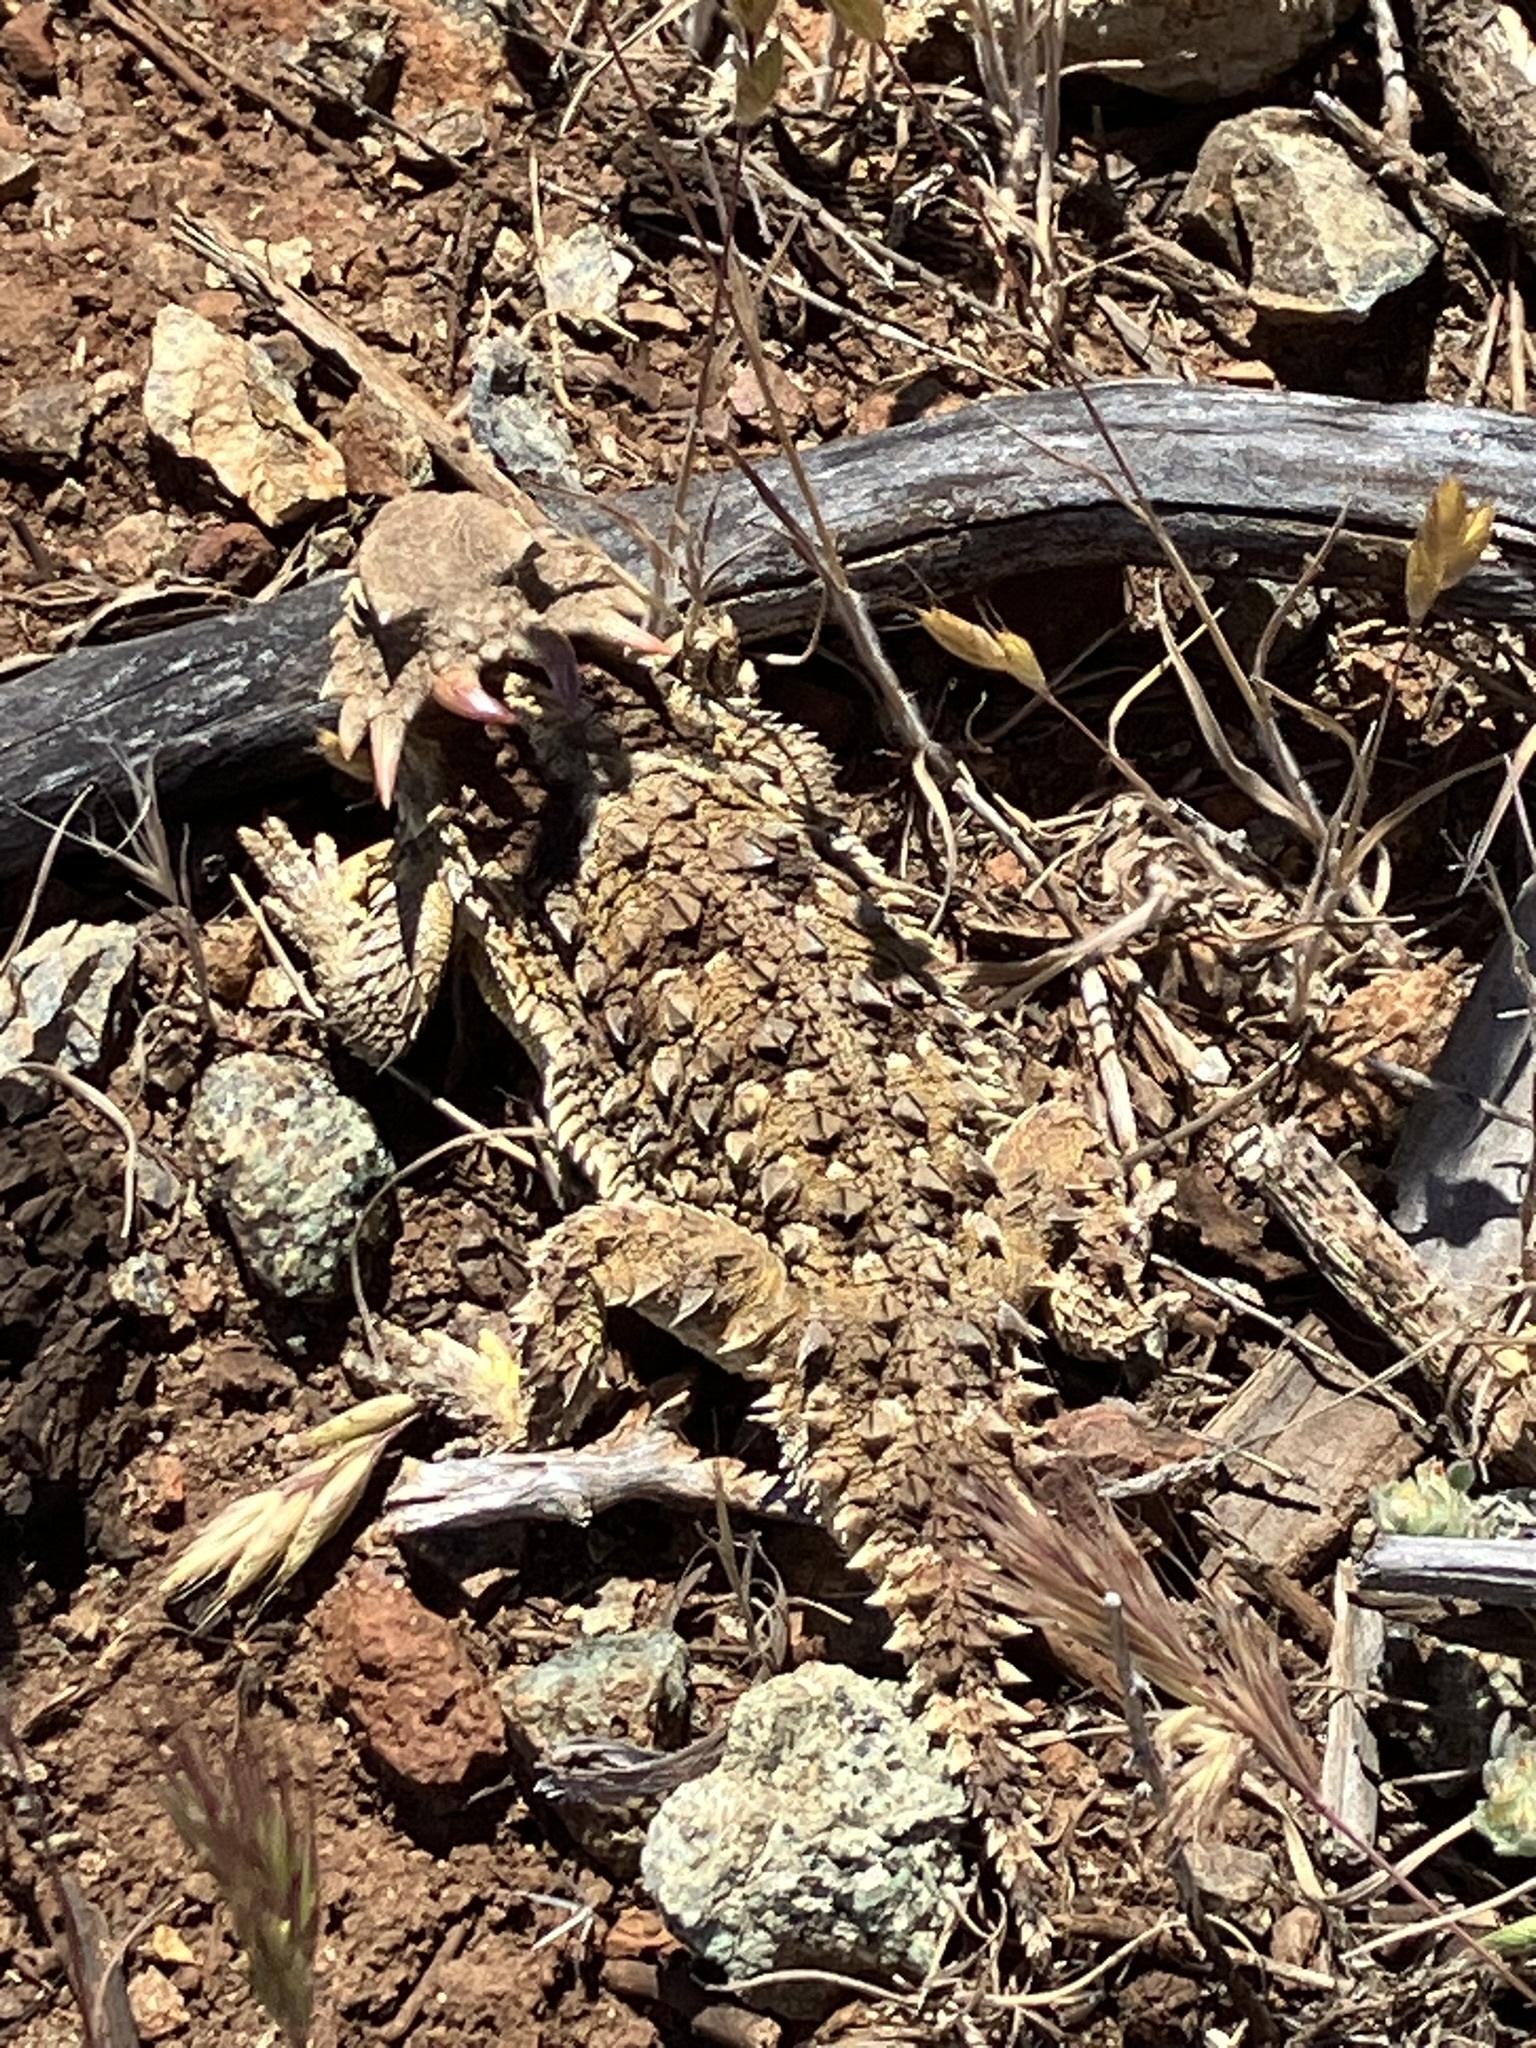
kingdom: Animalia
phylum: Chordata
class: Squamata
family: Phrynosomatidae
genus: Phrynosoma
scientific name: Phrynosoma blainvillii
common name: San diego horned lizard
